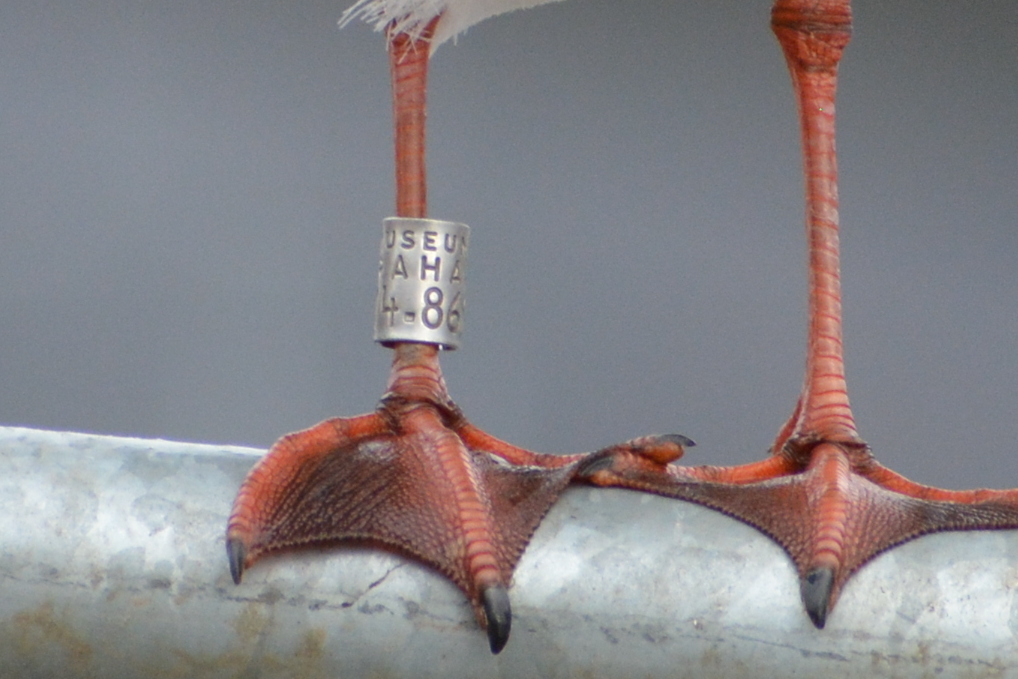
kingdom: Animalia
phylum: Chordata
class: Aves
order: Charadriiformes
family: Laridae
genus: Chroicocephalus
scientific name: Chroicocephalus ridibundus
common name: Black-headed gull
